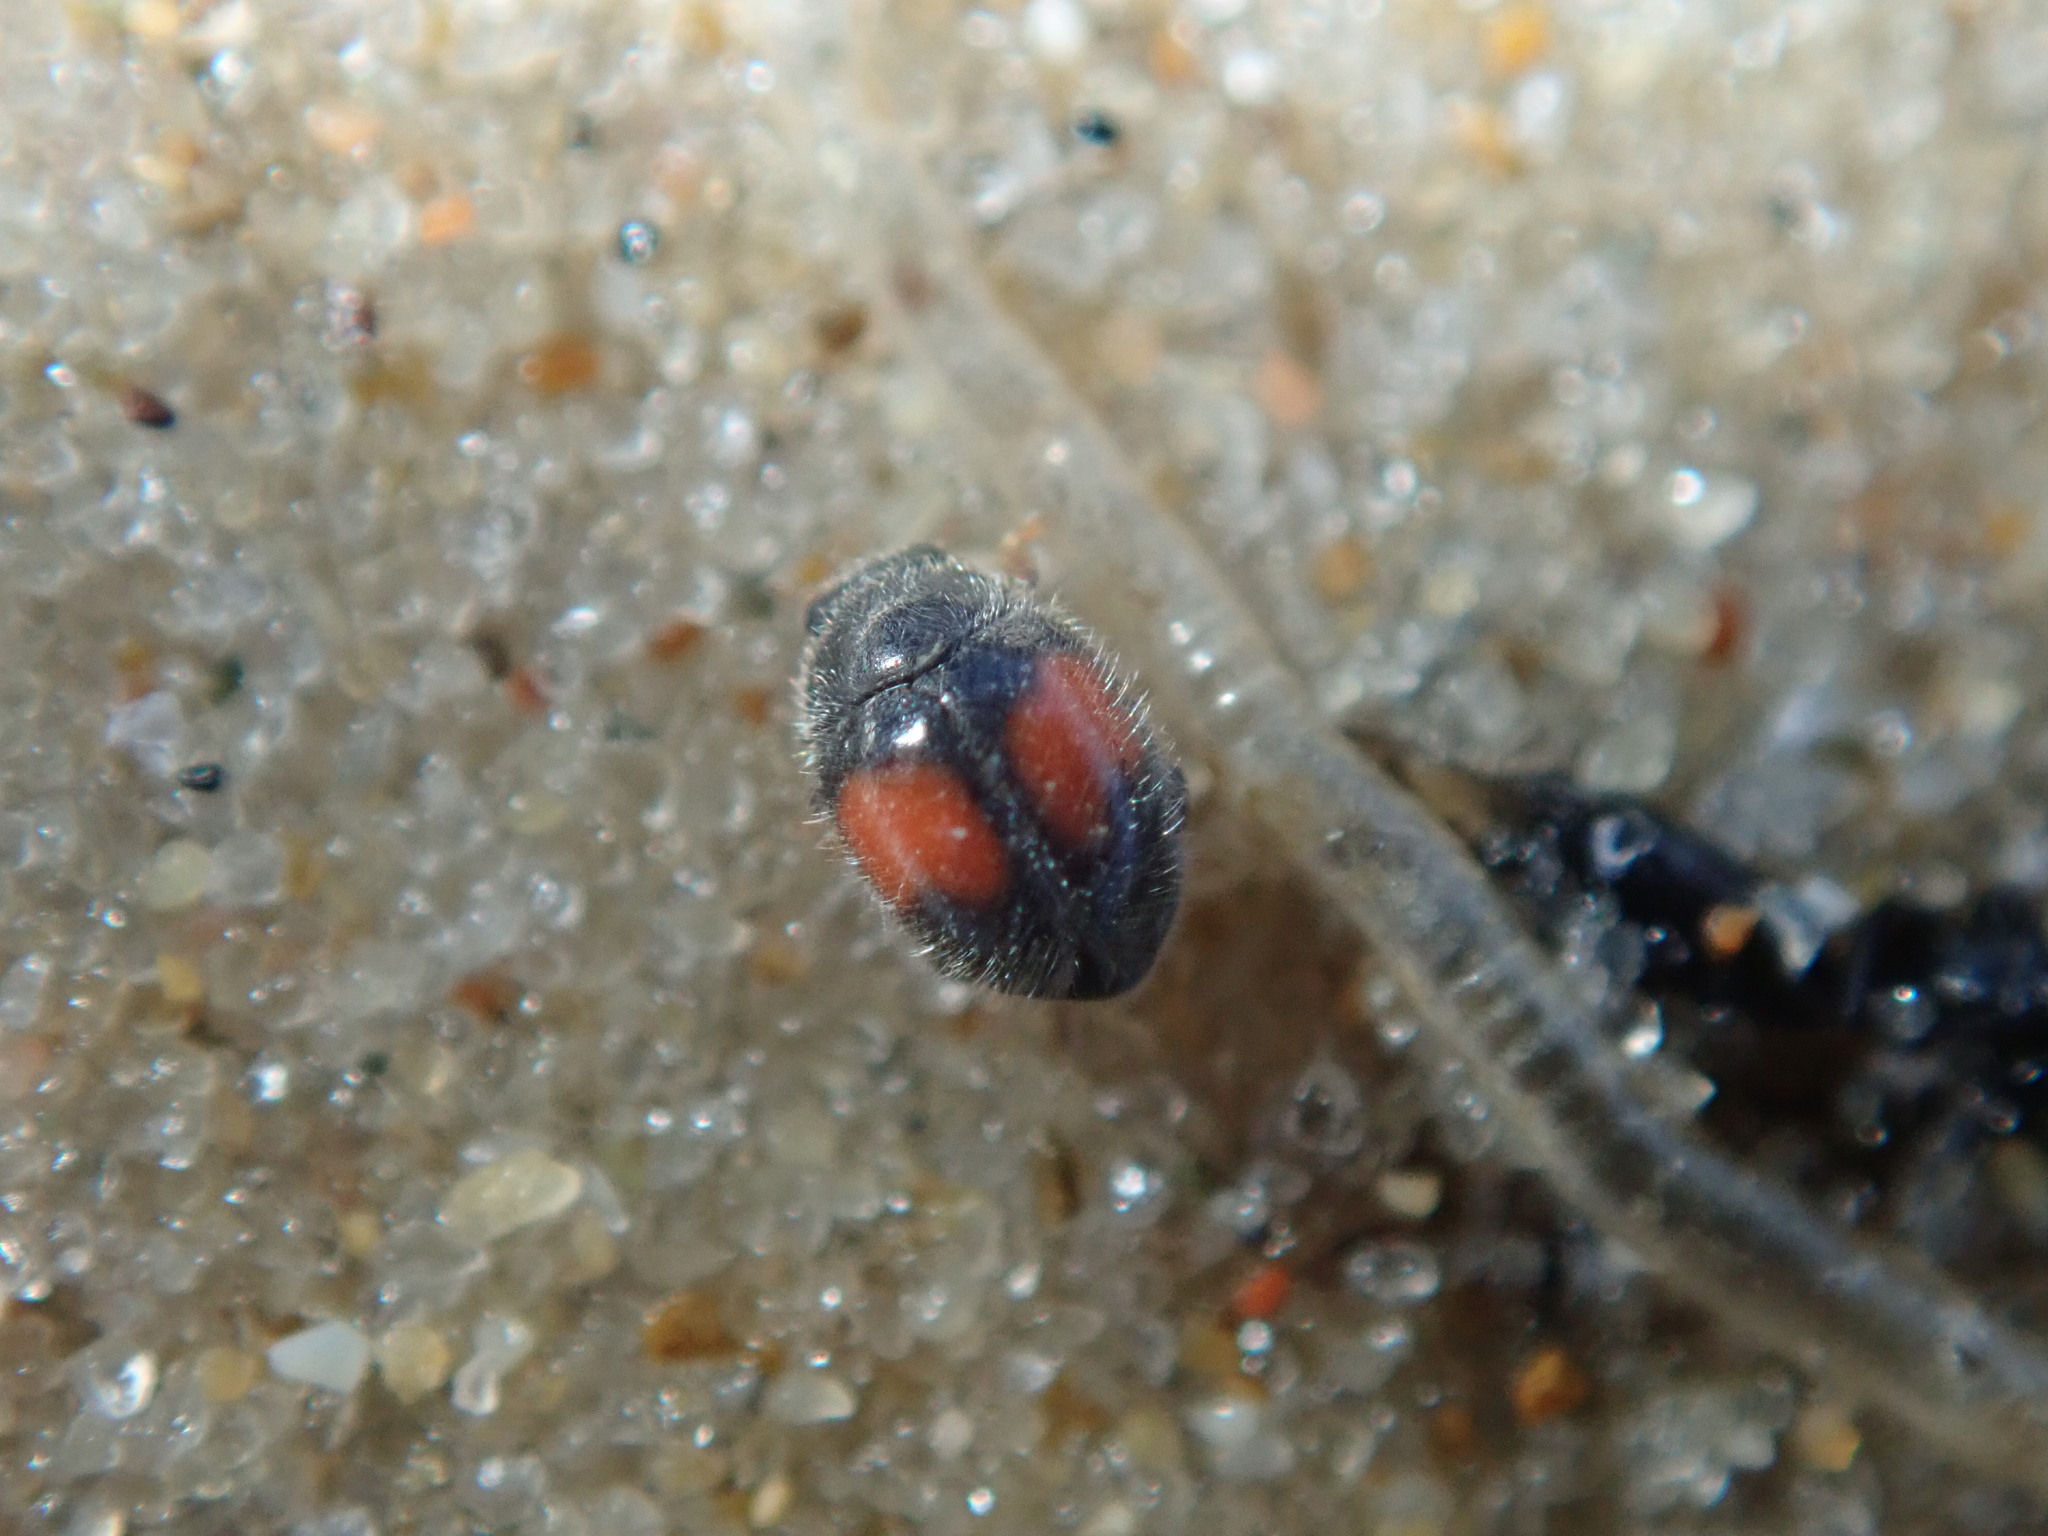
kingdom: Animalia
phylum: Arthropoda
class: Insecta
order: Coleoptera
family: Coccinellidae
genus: Scymnus
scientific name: Scymnus notescens
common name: Minute two-spotted ladybird beetle
